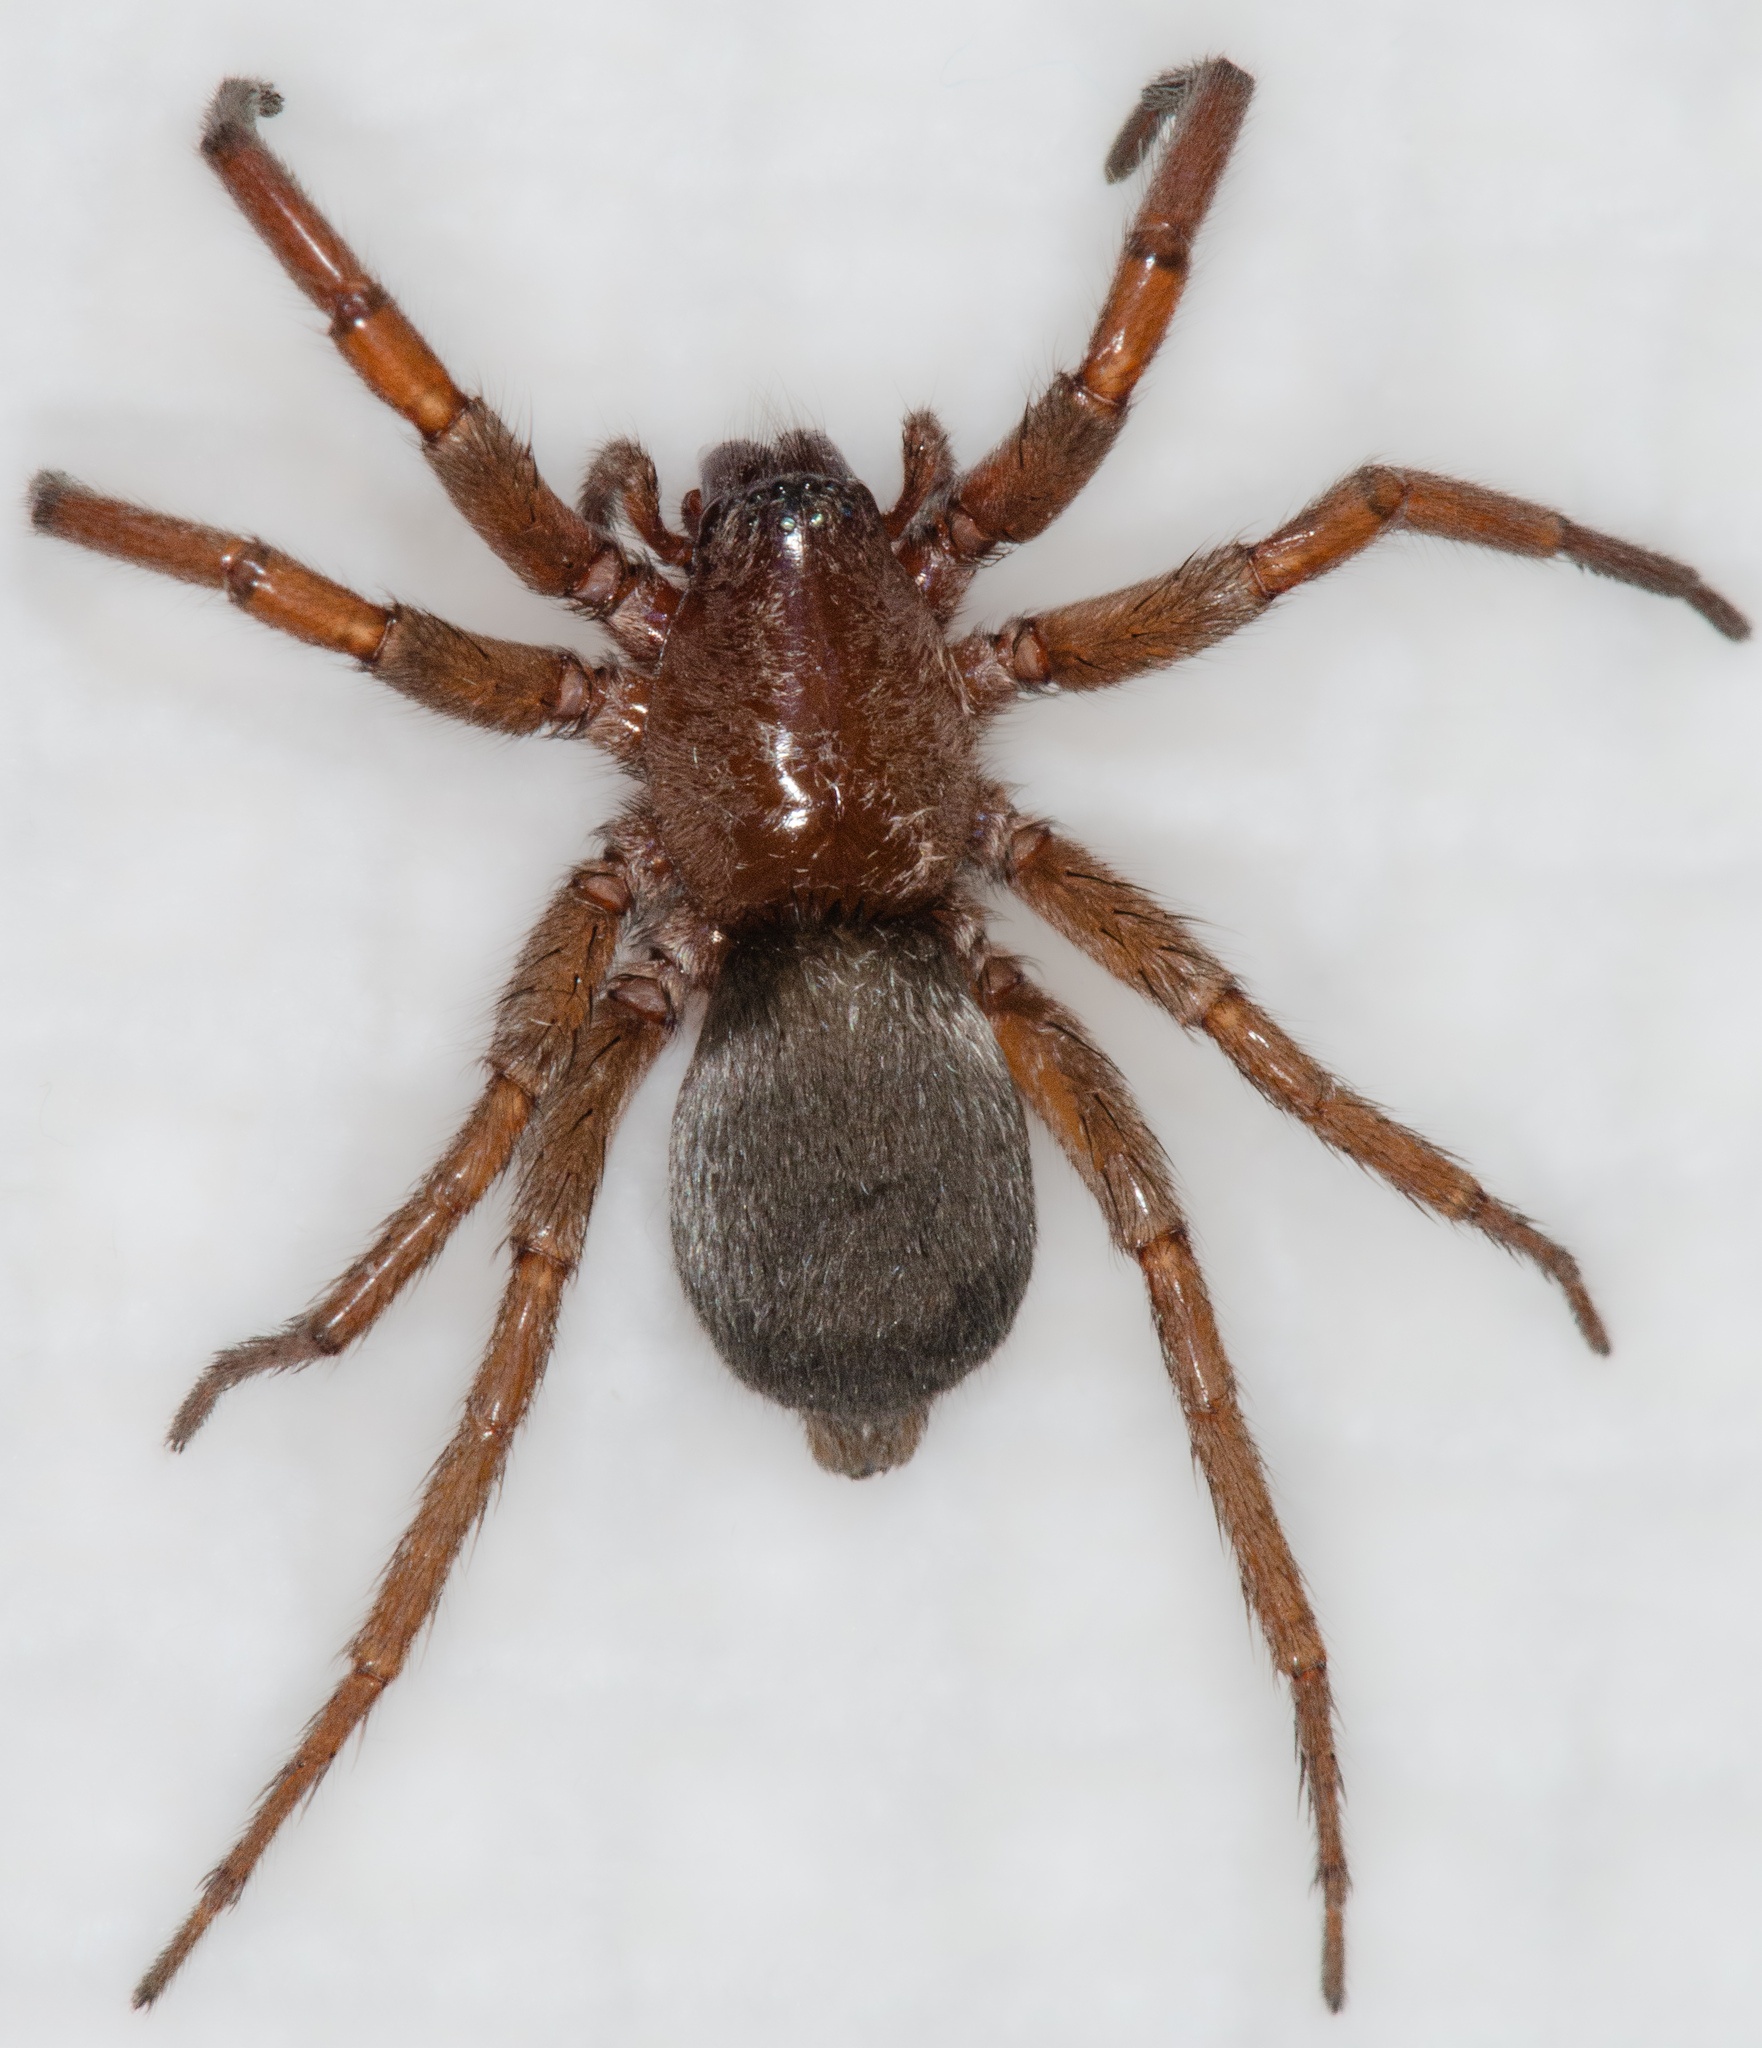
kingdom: Animalia
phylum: Arthropoda
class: Arachnida
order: Araneae
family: Gnaphosidae
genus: Scotophaeus
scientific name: Scotophaeus blackwalli
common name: Mouse spider
